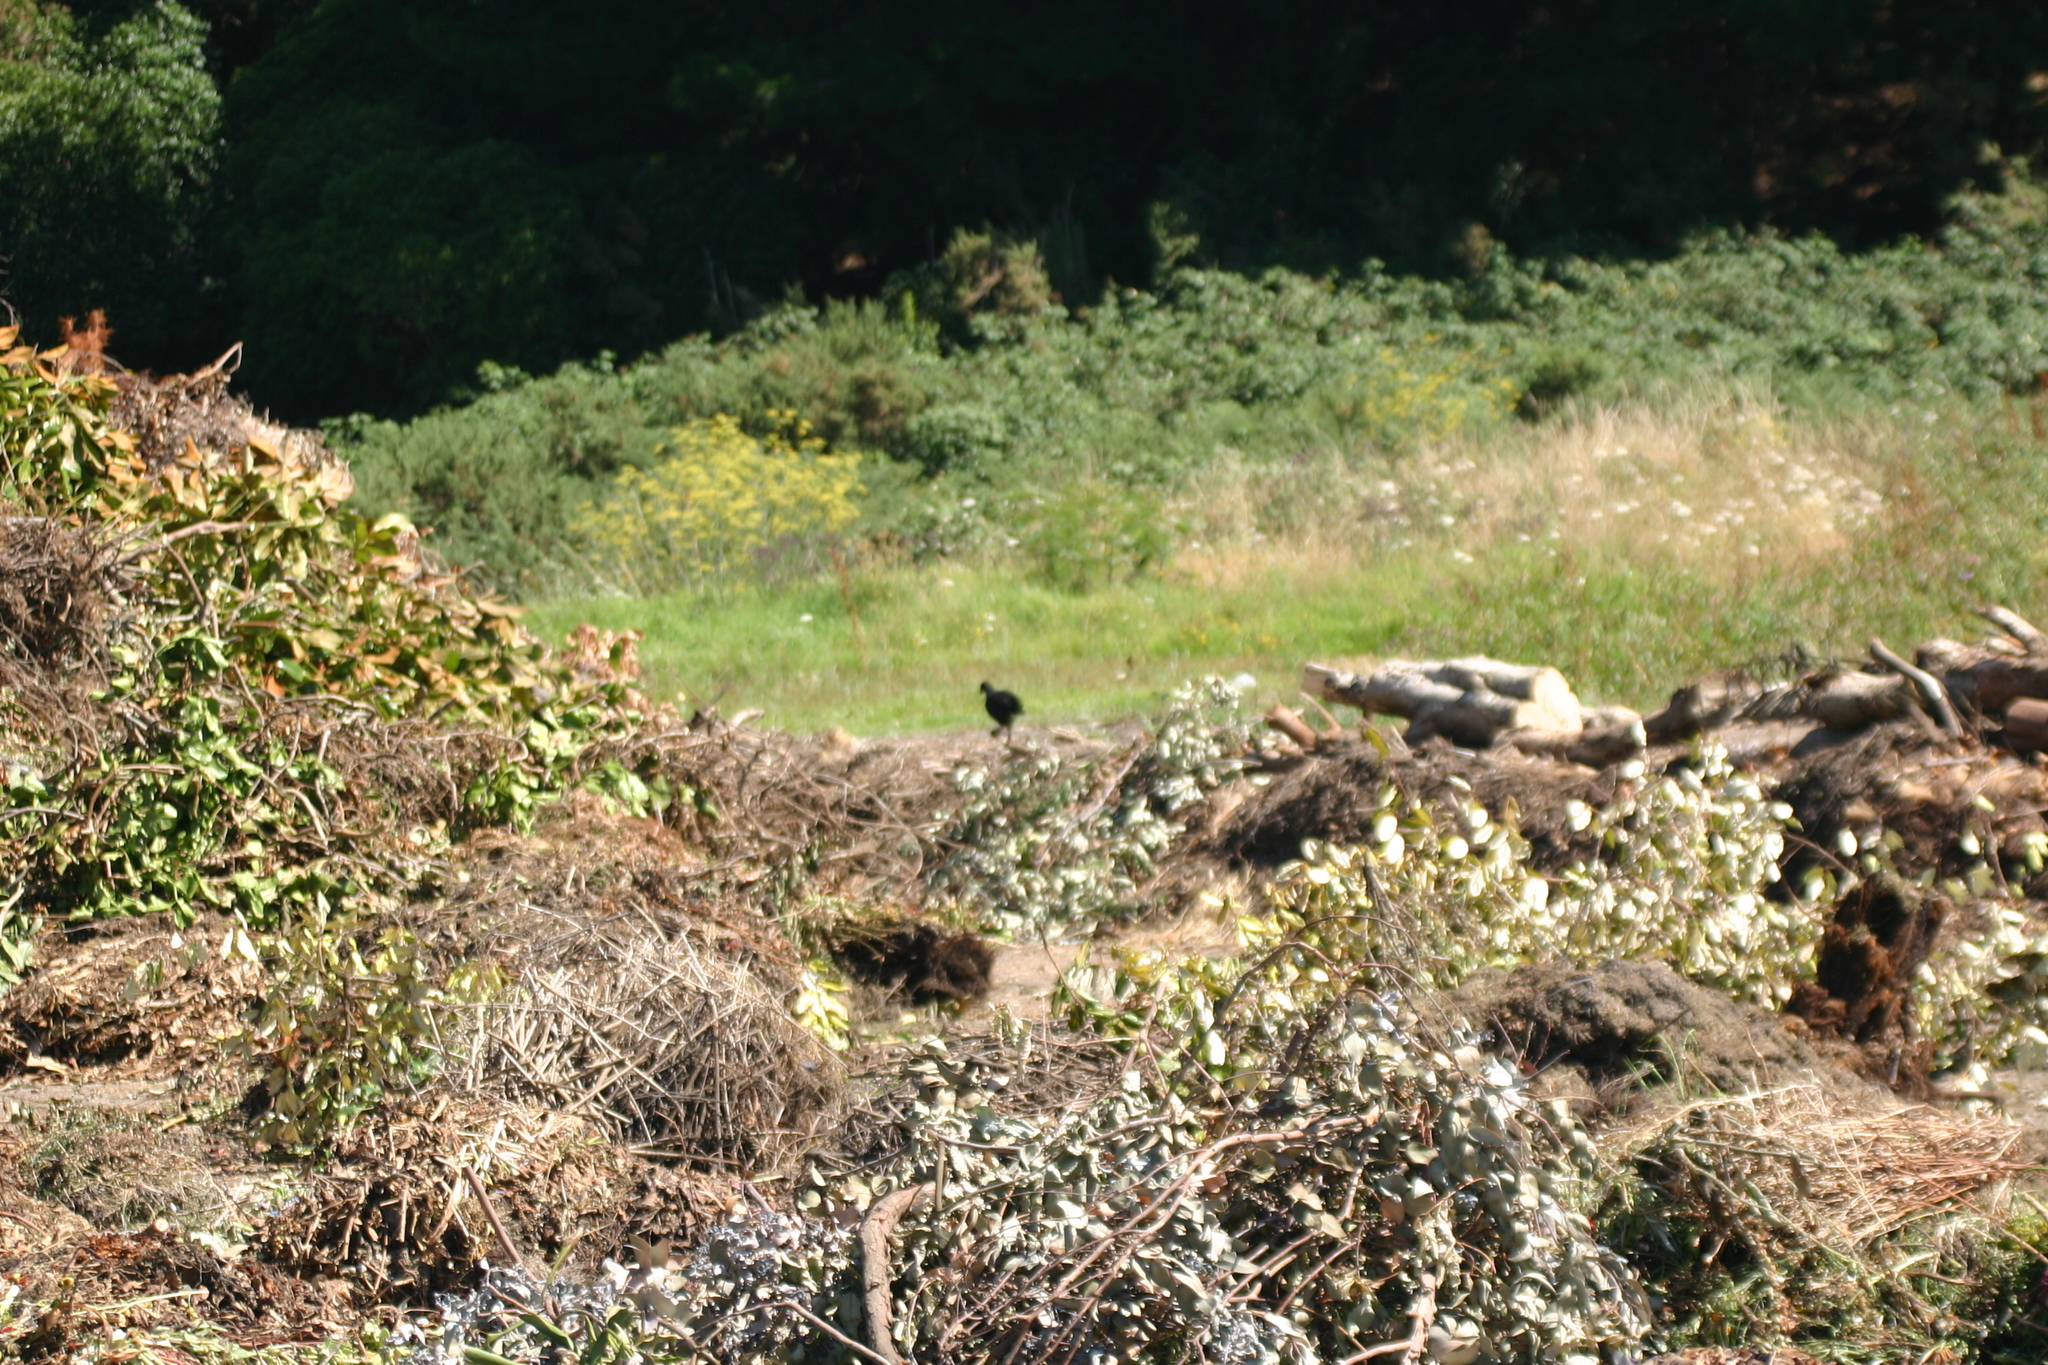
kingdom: Animalia
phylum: Chordata
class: Aves
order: Gruiformes
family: Rallidae
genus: Porphyrio
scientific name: Porphyrio melanotus
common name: Australasian swamphen
